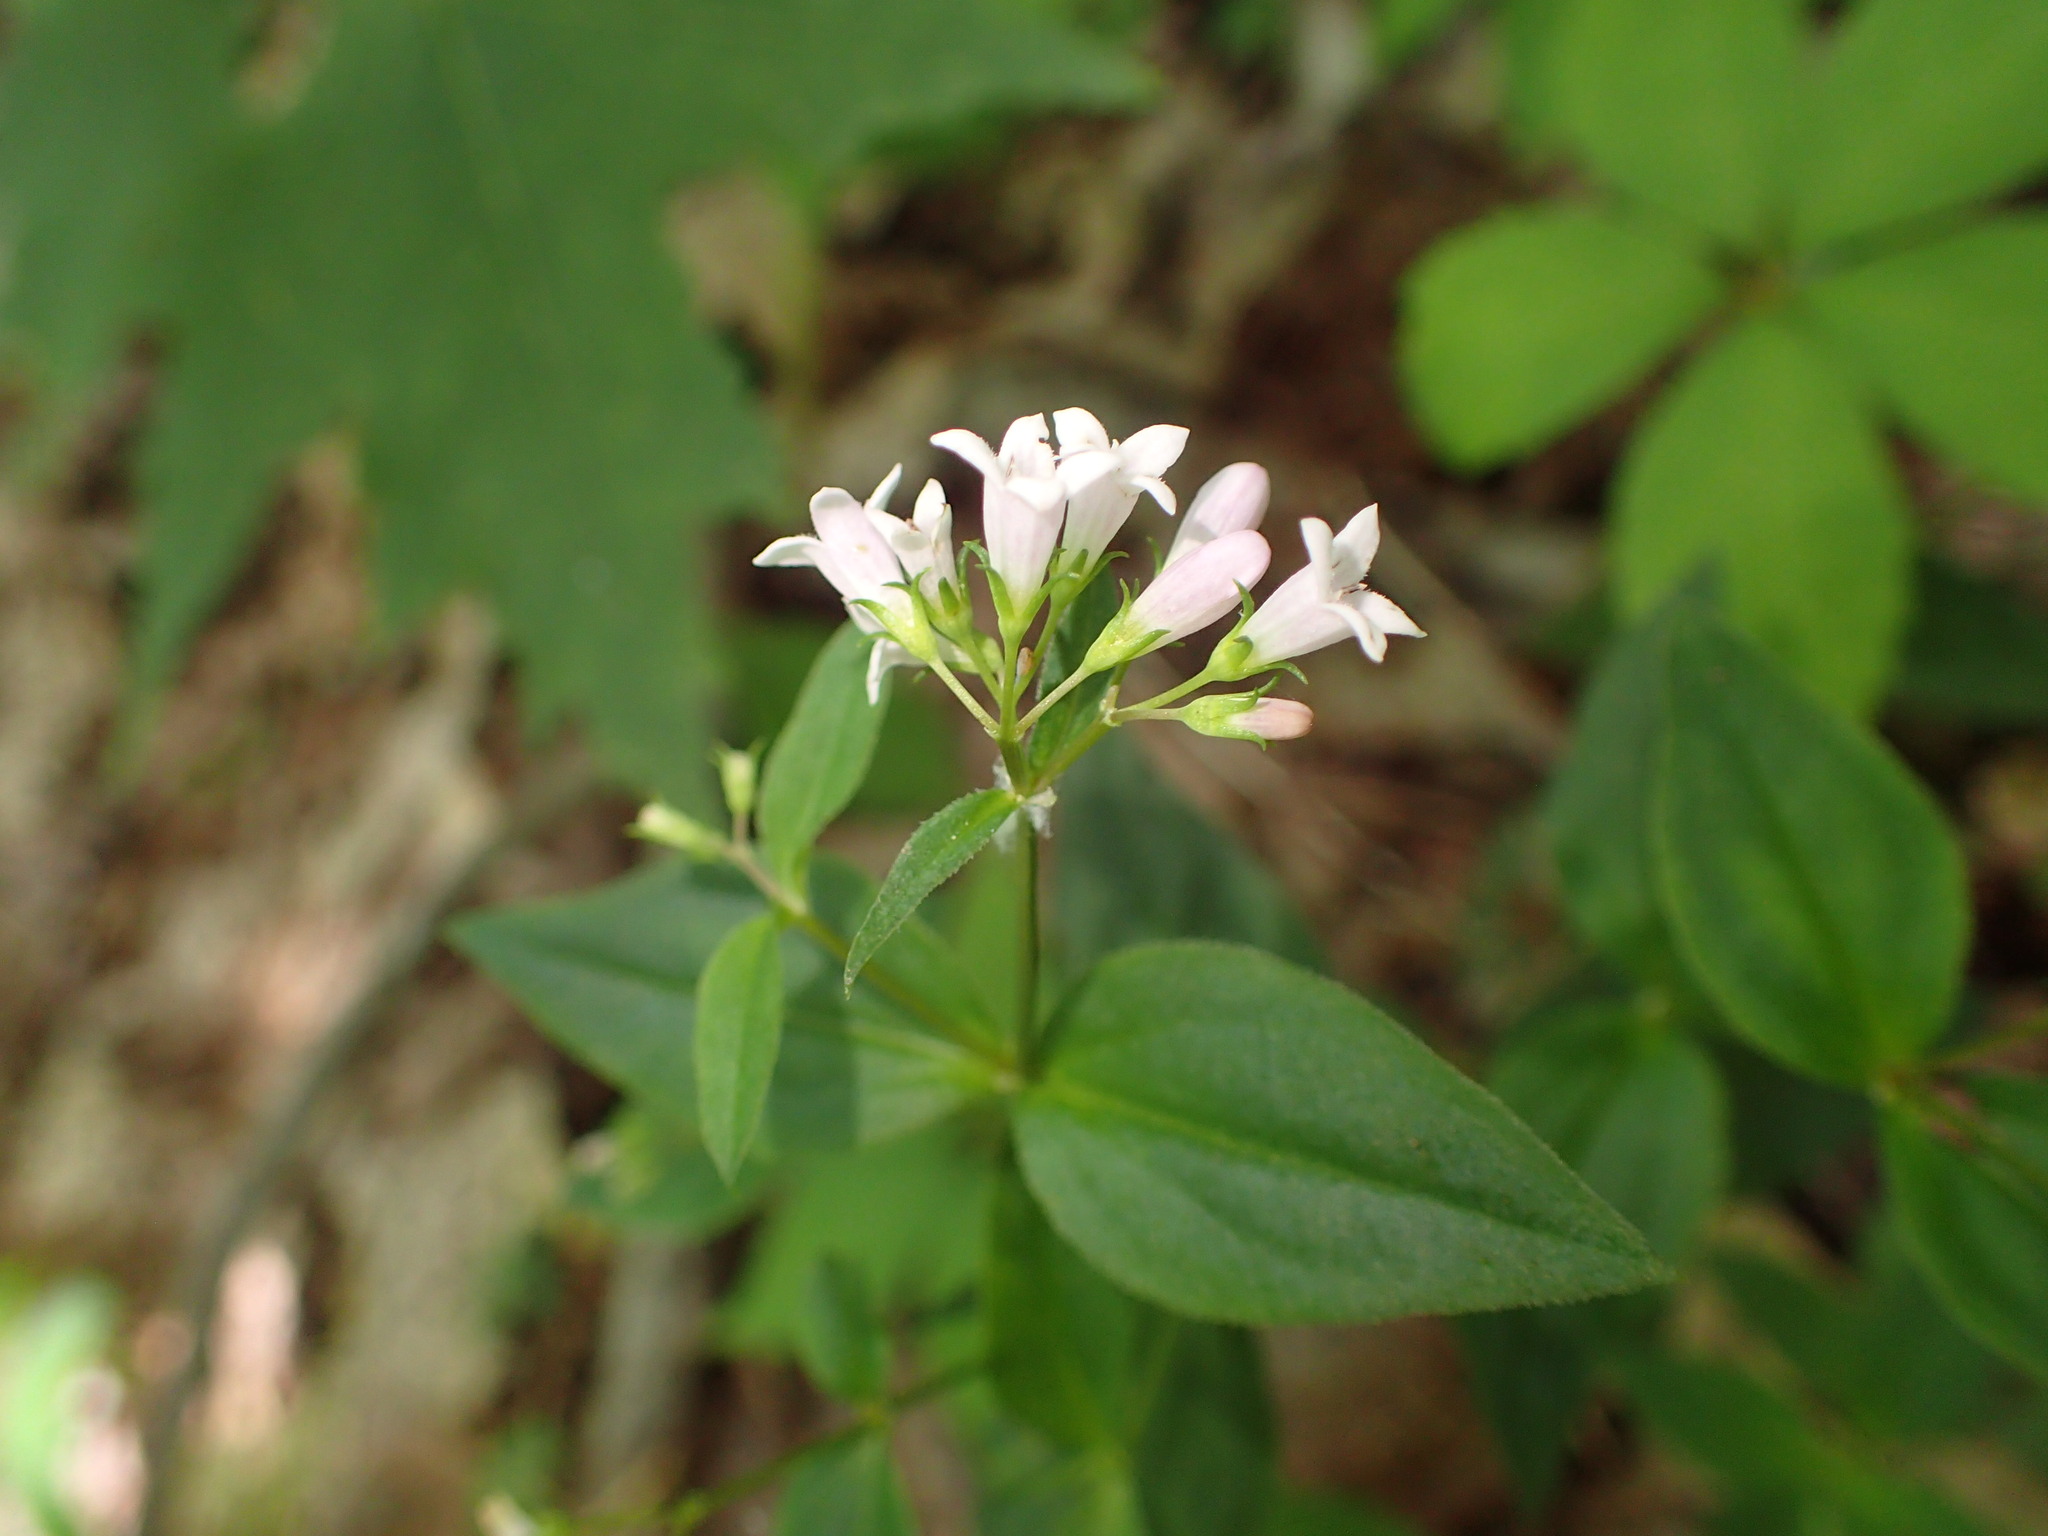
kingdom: Plantae
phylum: Tracheophyta
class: Magnoliopsida
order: Gentianales
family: Rubiaceae
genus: Houstonia
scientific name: Houstonia purpurea
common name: Summer bluet
